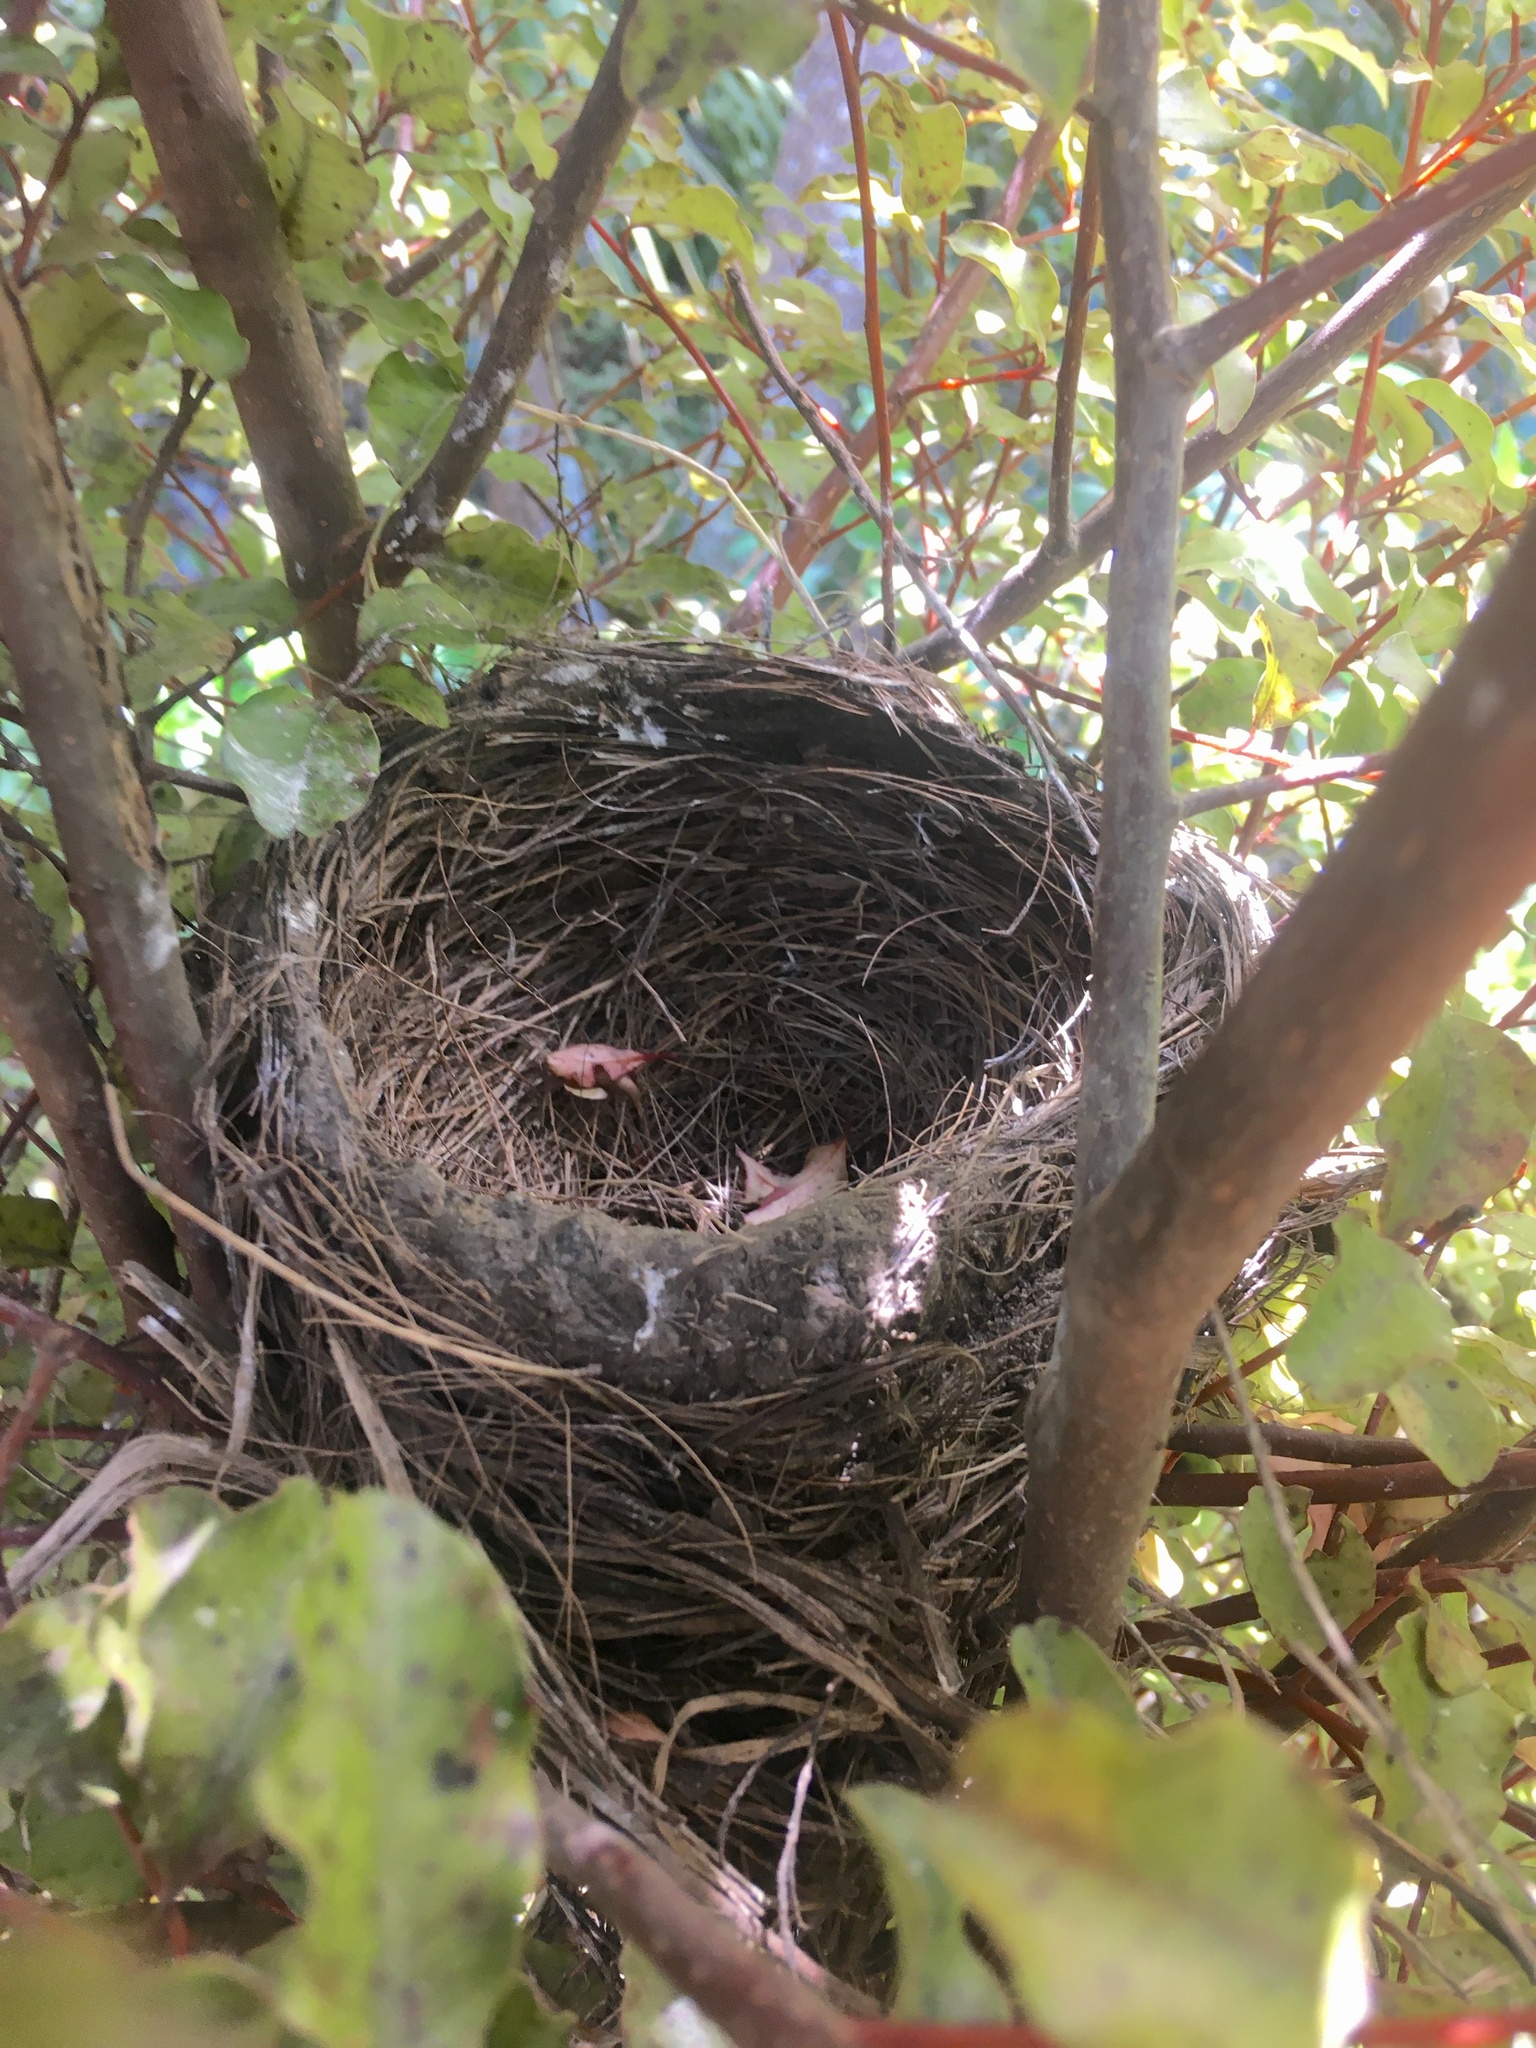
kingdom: Animalia
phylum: Chordata
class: Aves
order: Passeriformes
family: Turdidae
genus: Turdus
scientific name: Turdus merula
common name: Common blackbird
